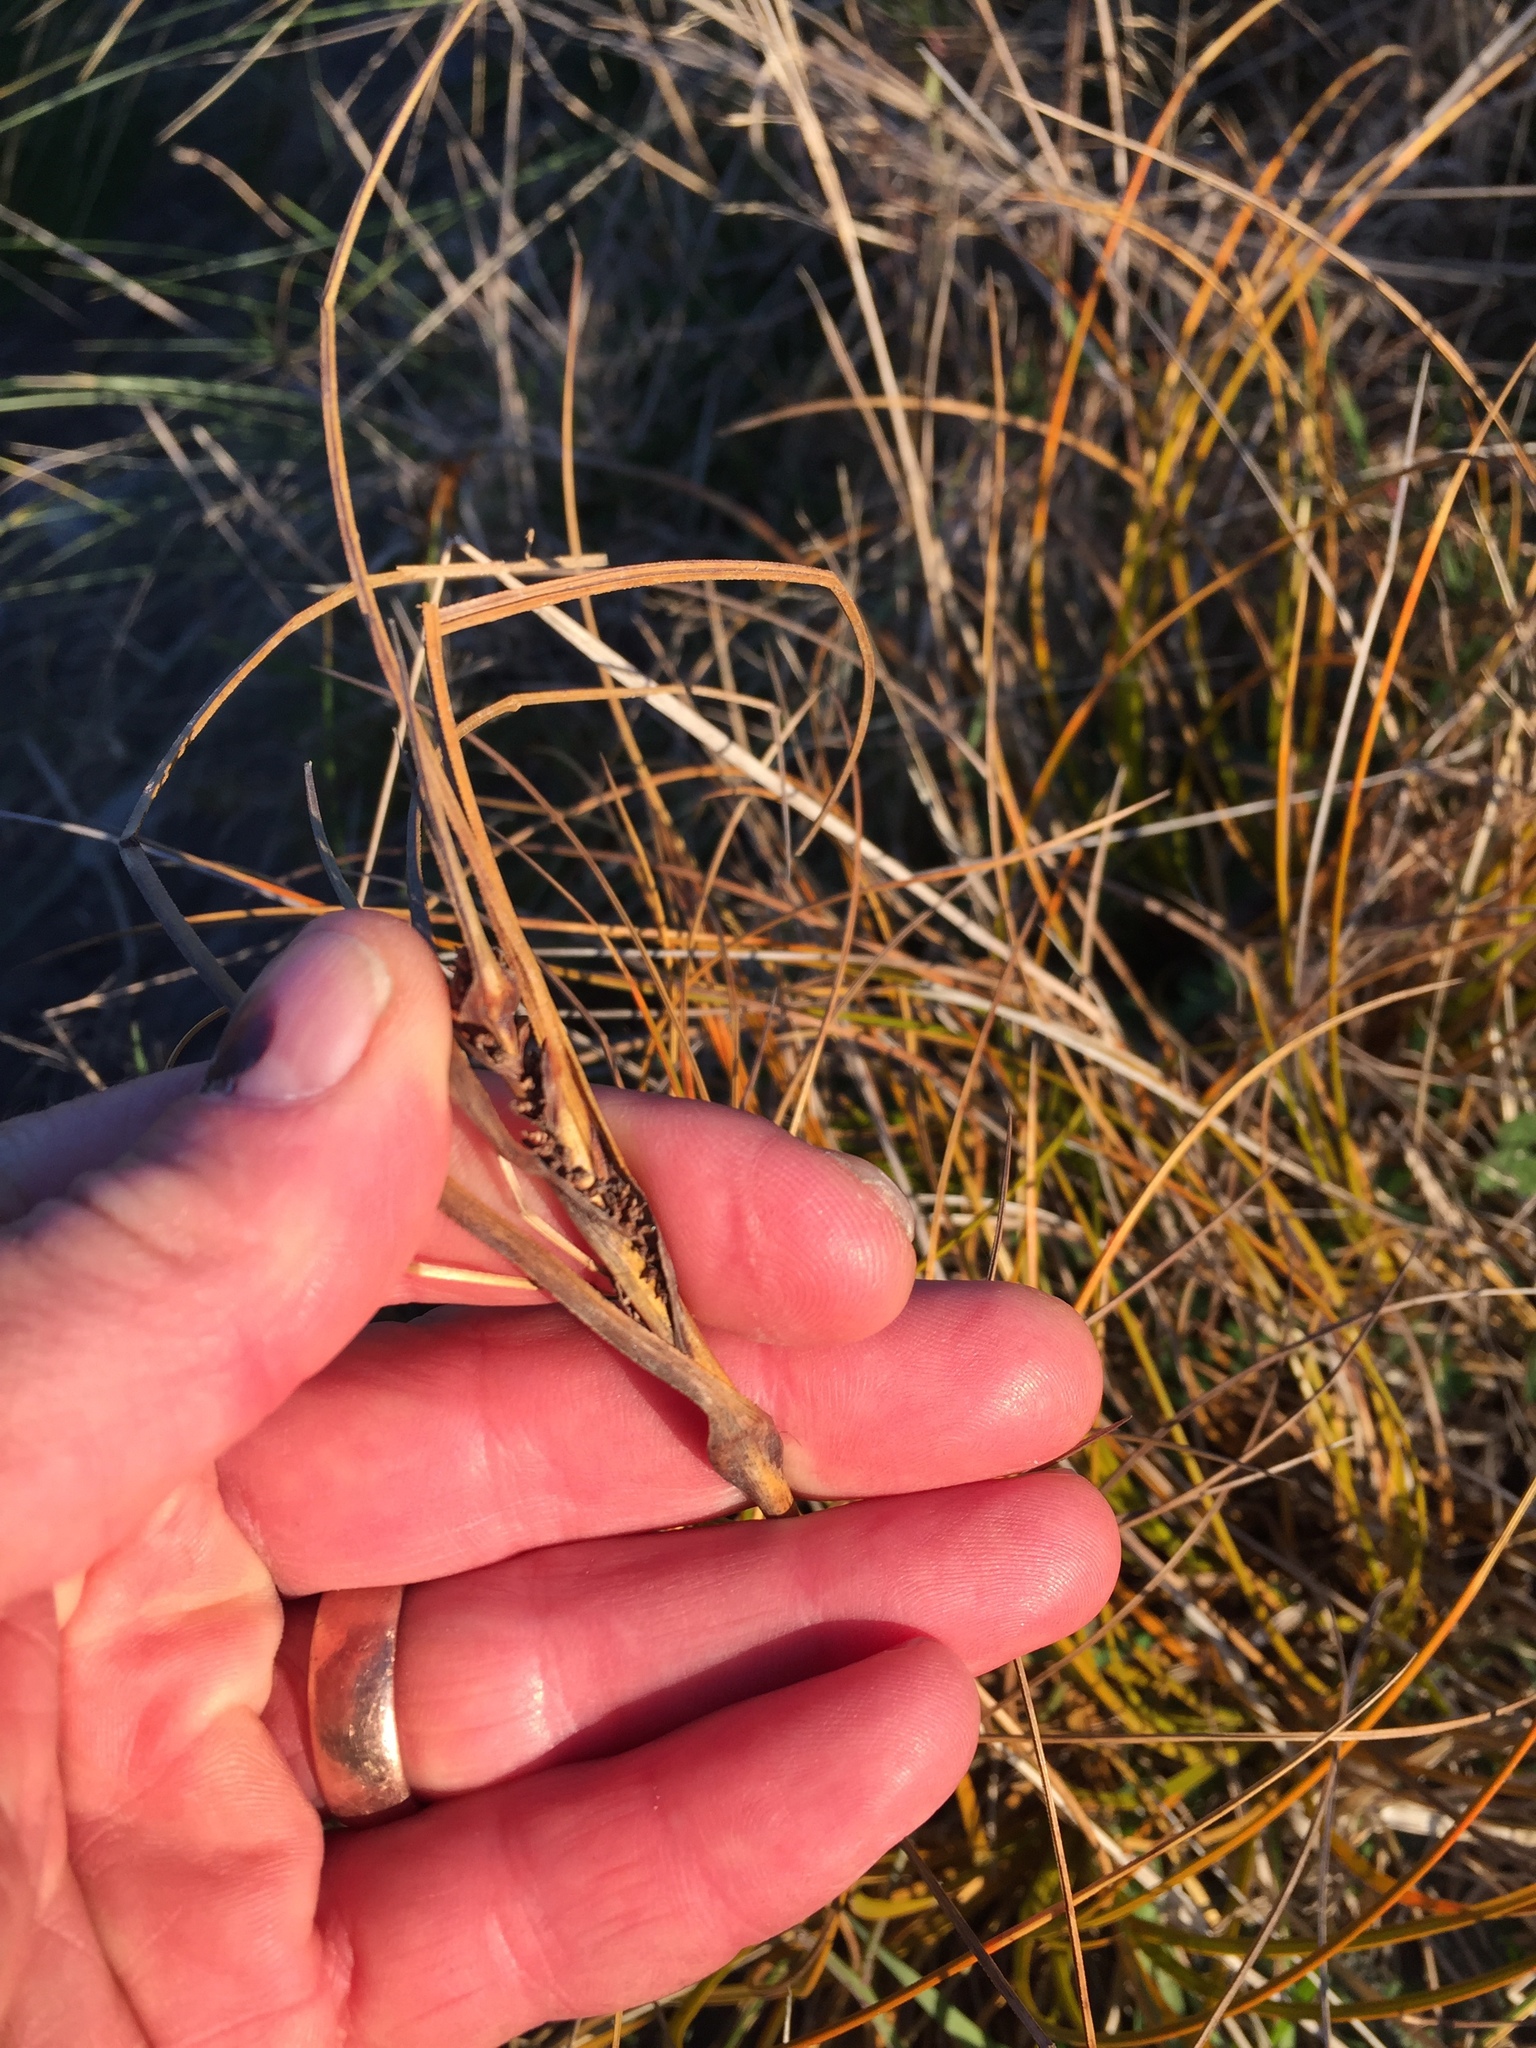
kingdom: Plantae
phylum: Tracheophyta
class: Liliopsida
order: Poales
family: Cyperaceae
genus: Ficinia
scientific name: Ficinia spiralis
